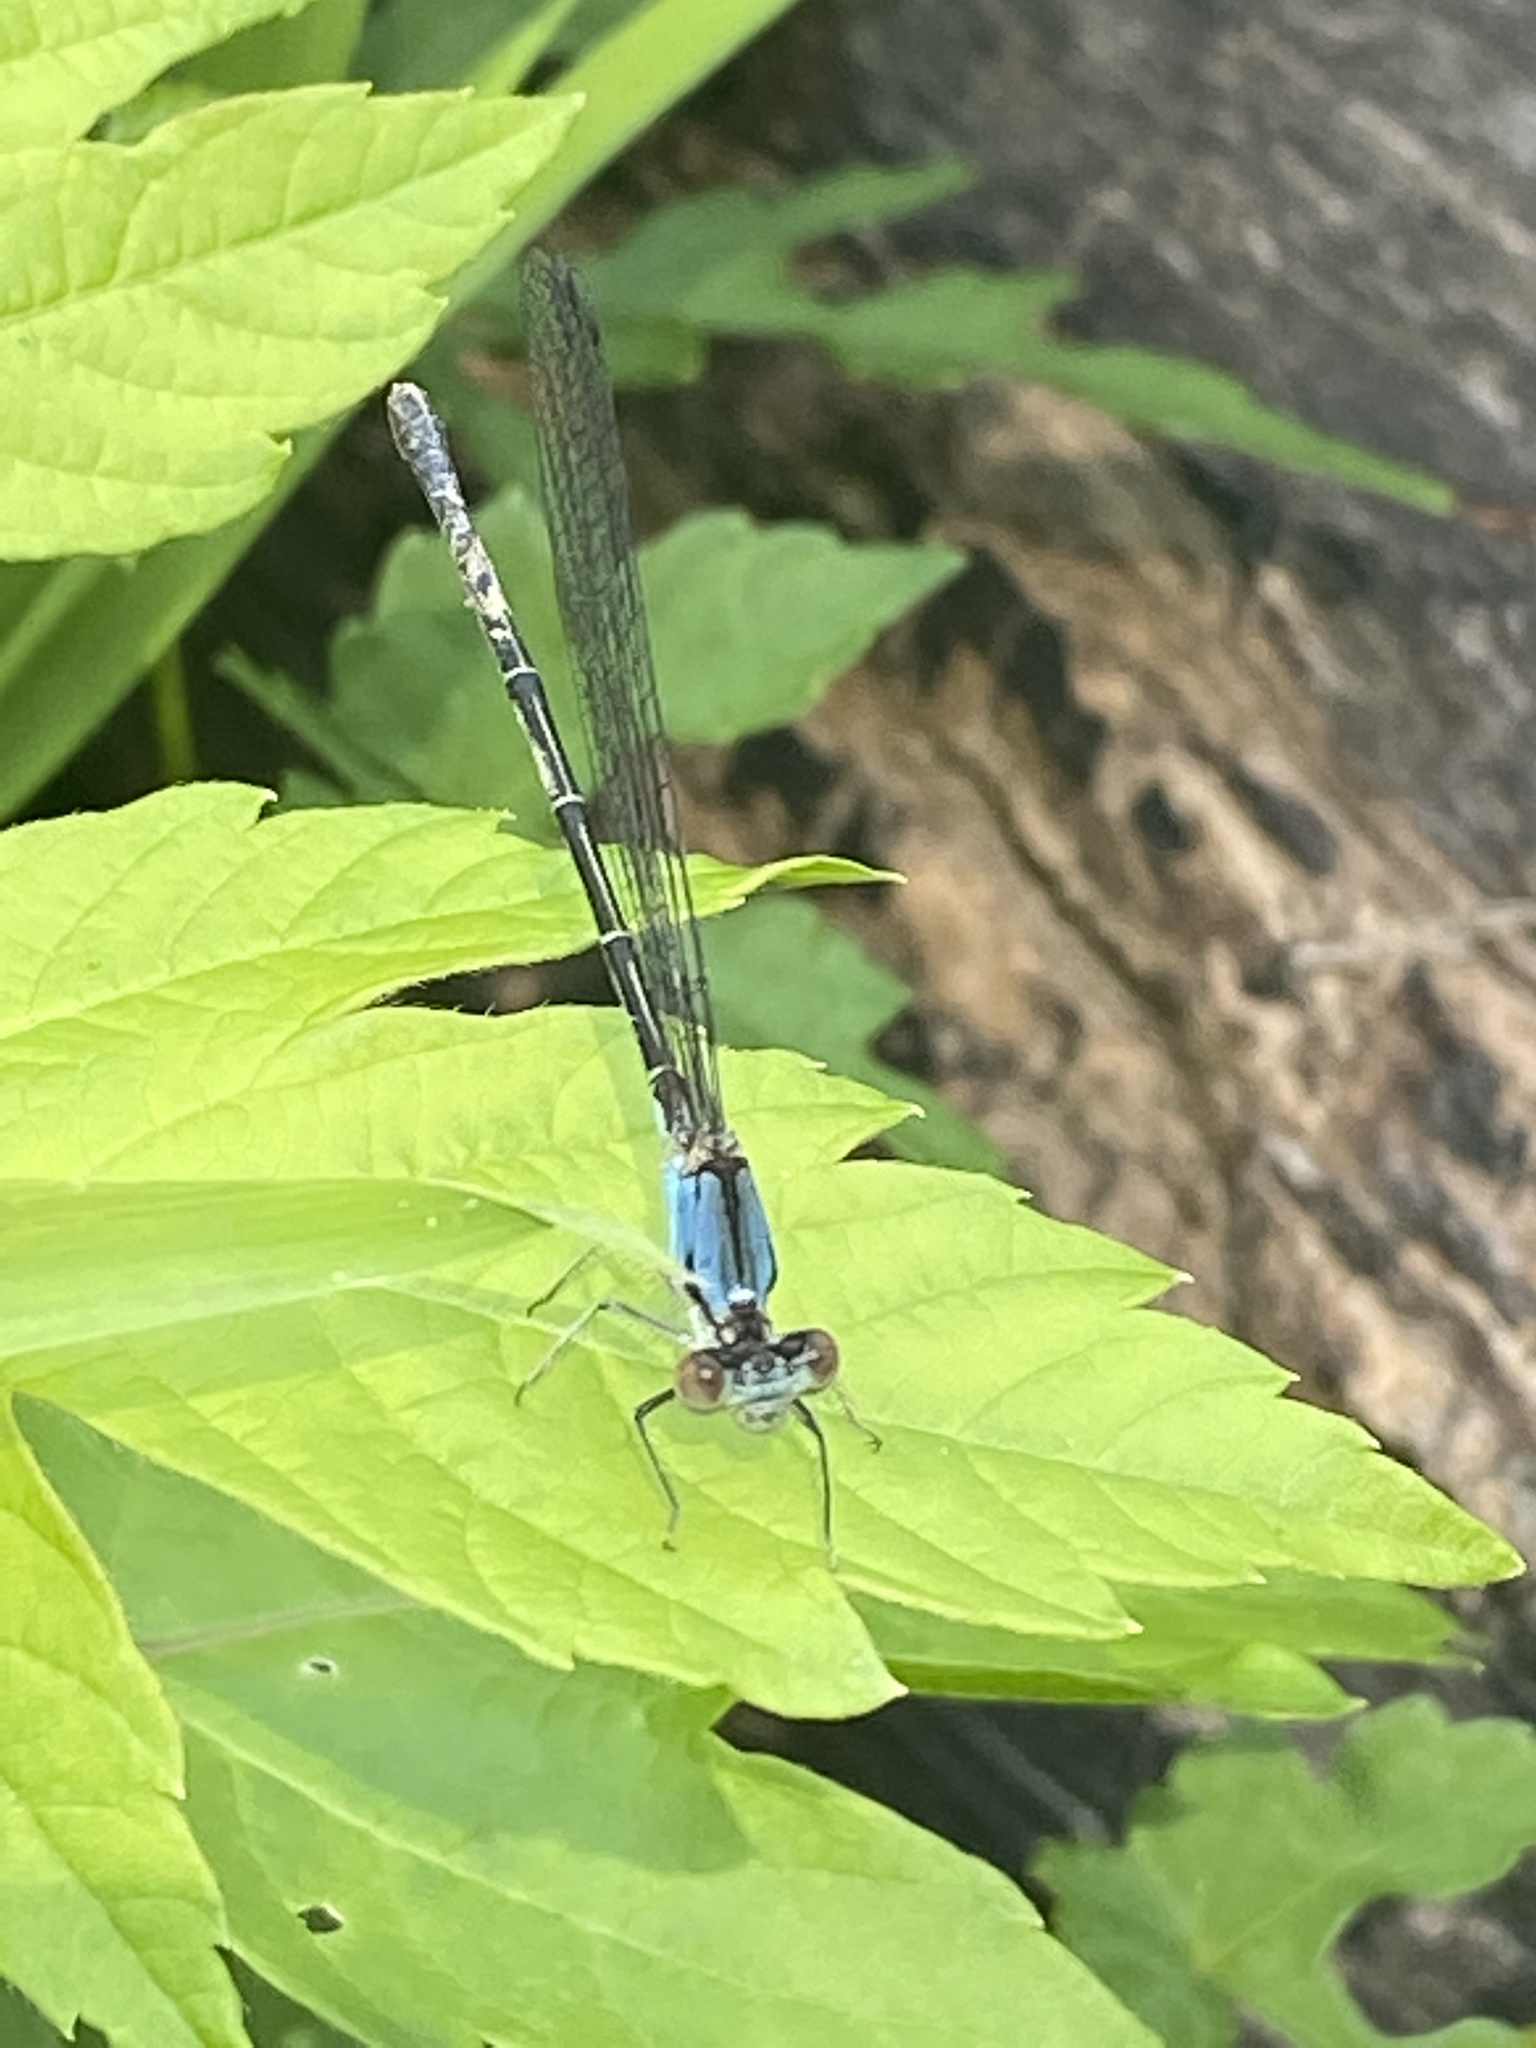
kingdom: Animalia
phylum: Arthropoda
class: Insecta
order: Odonata
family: Coenagrionidae
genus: Argia
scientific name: Argia apicalis
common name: Blue-fronted dancer
